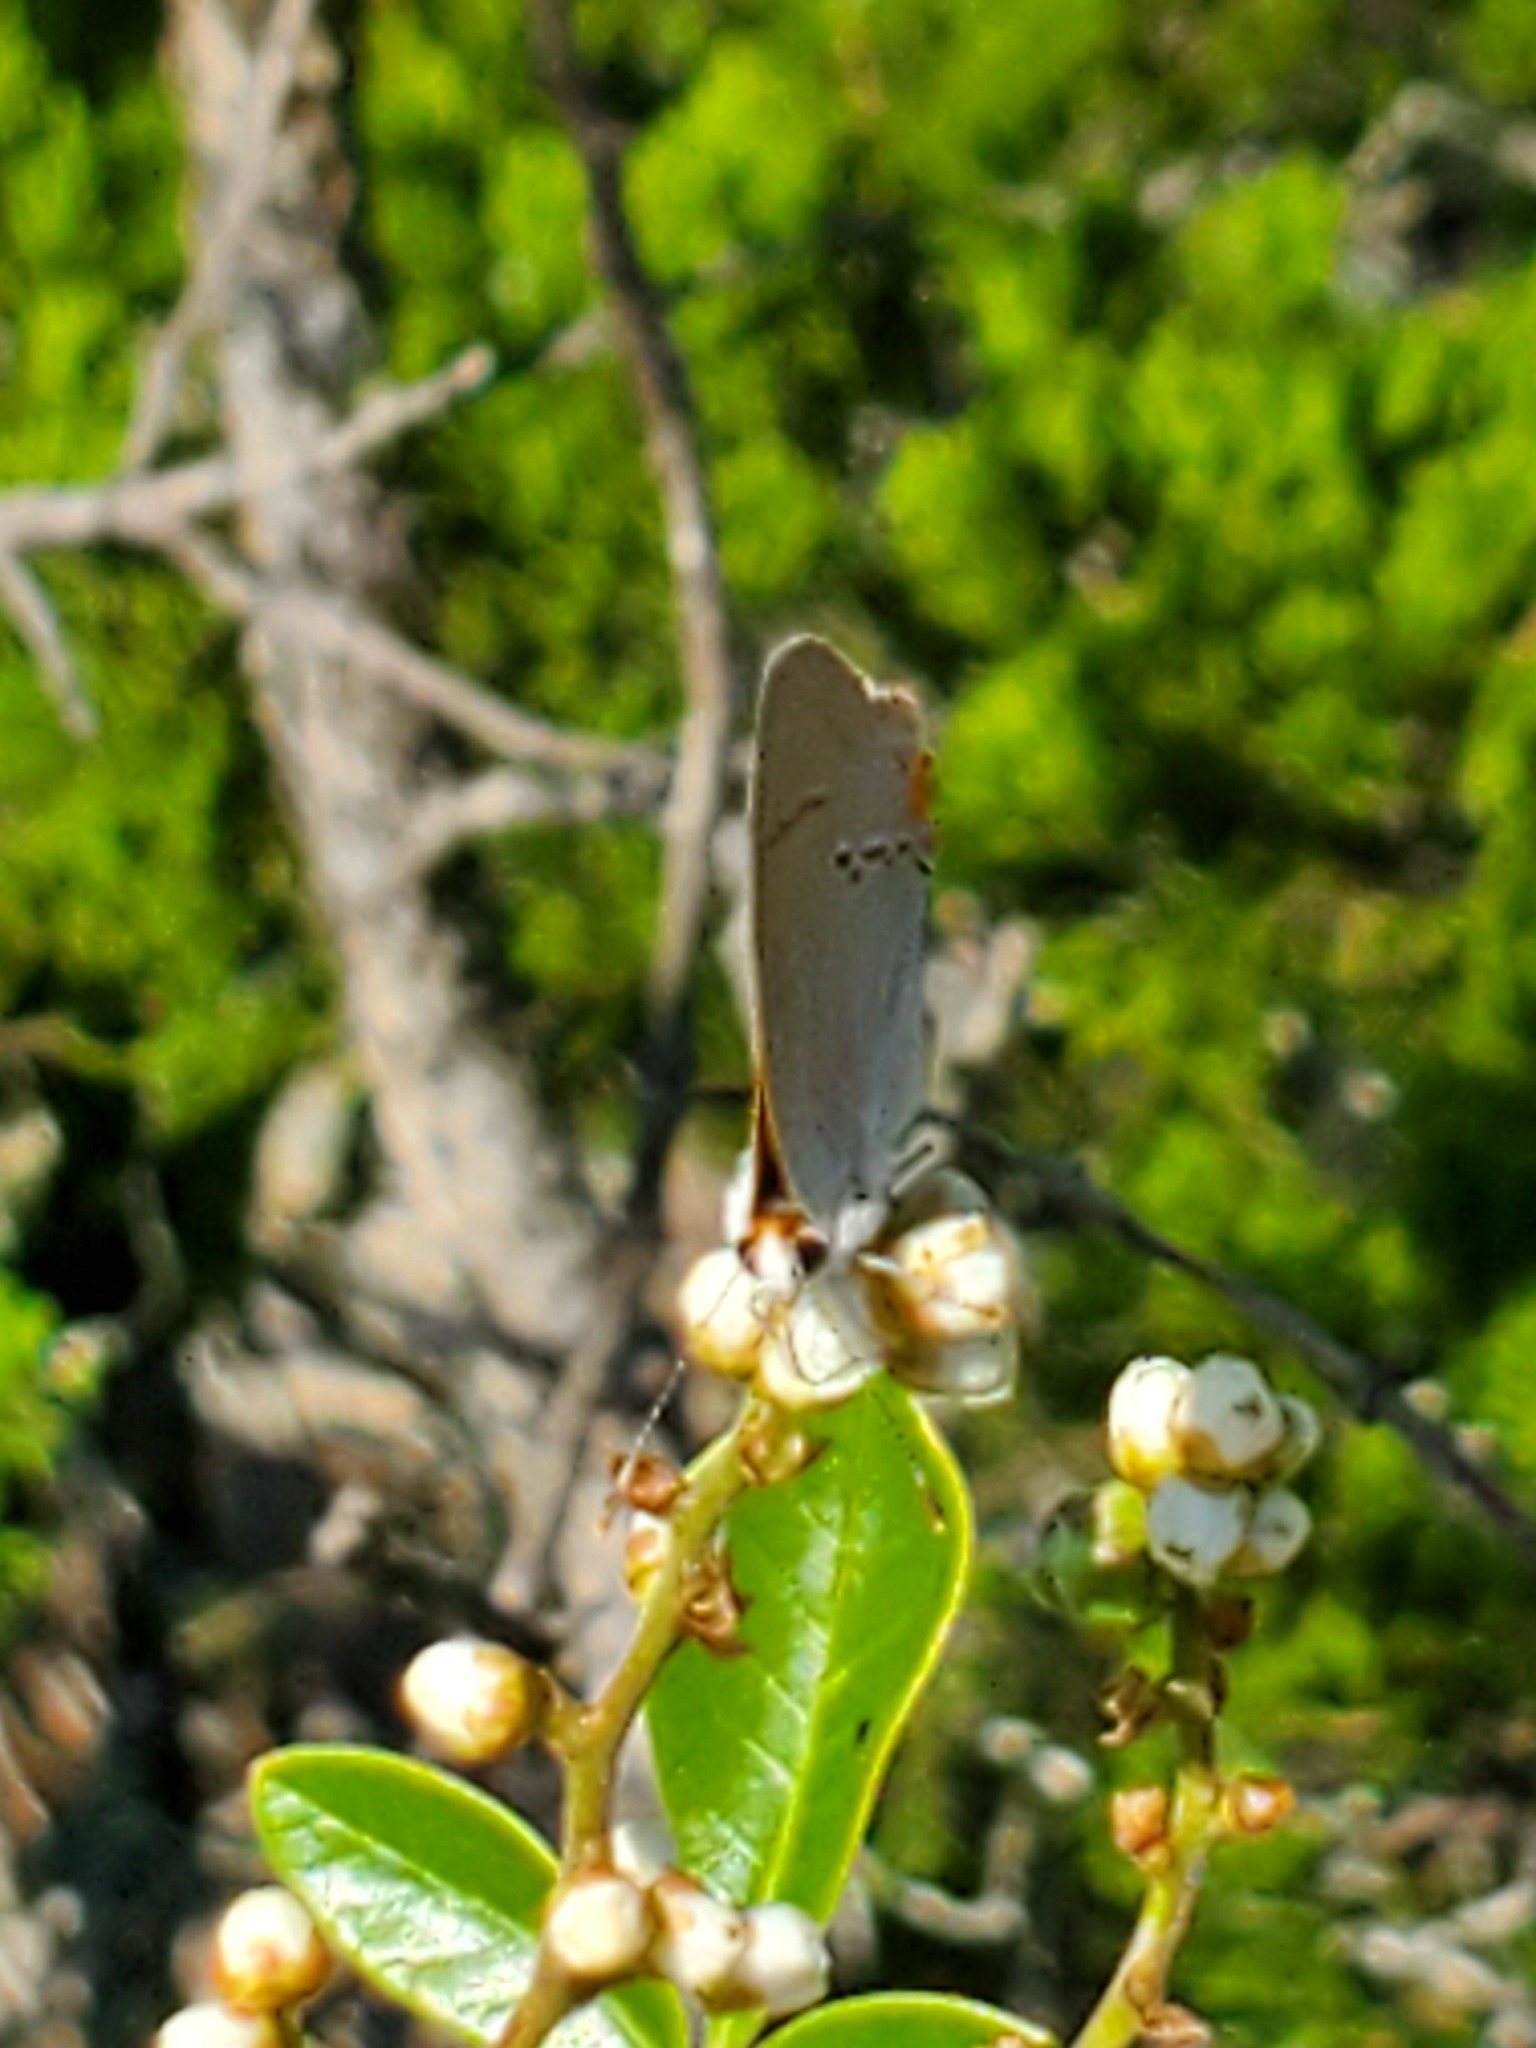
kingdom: Animalia
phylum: Arthropoda
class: Insecta
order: Lepidoptera
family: Lycaenidae
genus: Strymon
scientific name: Strymon melinus
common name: Gray hairstreak
